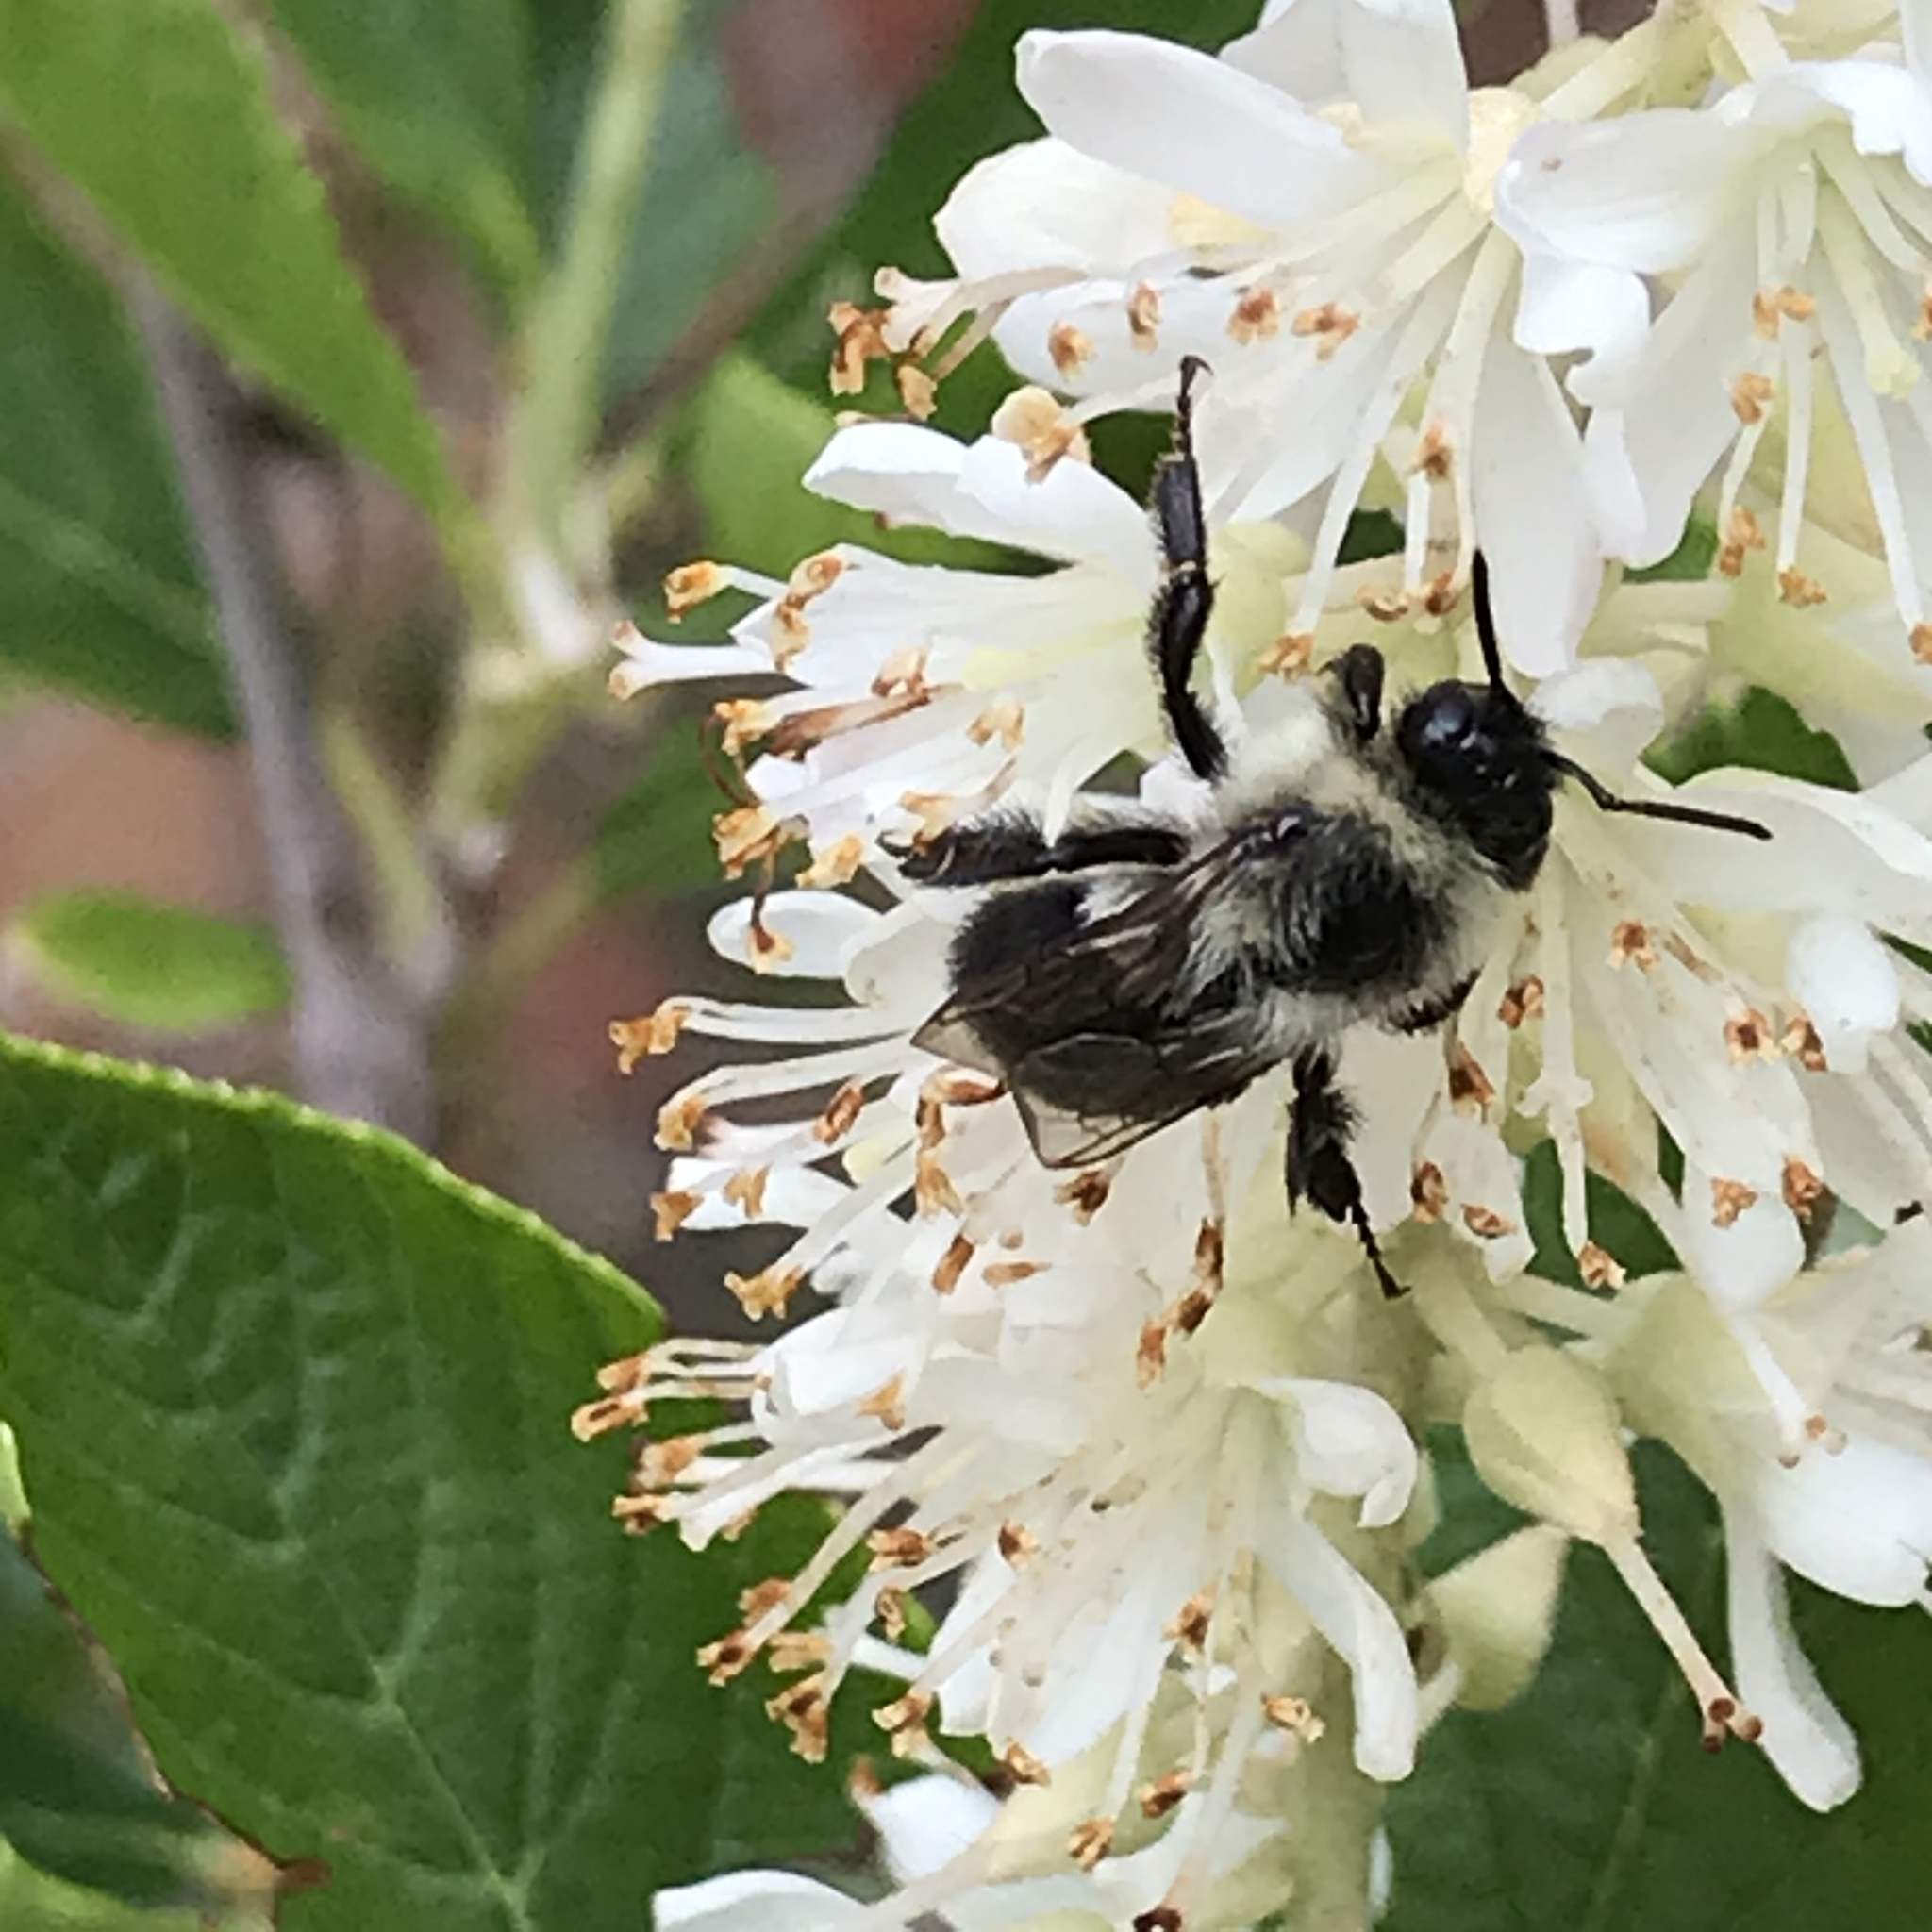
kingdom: Animalia
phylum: Arthropoda
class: Insecta
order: Hymenoptera
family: Apidae
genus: Bombus
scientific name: Bombus impatiens
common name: Common eastern bumble bee
